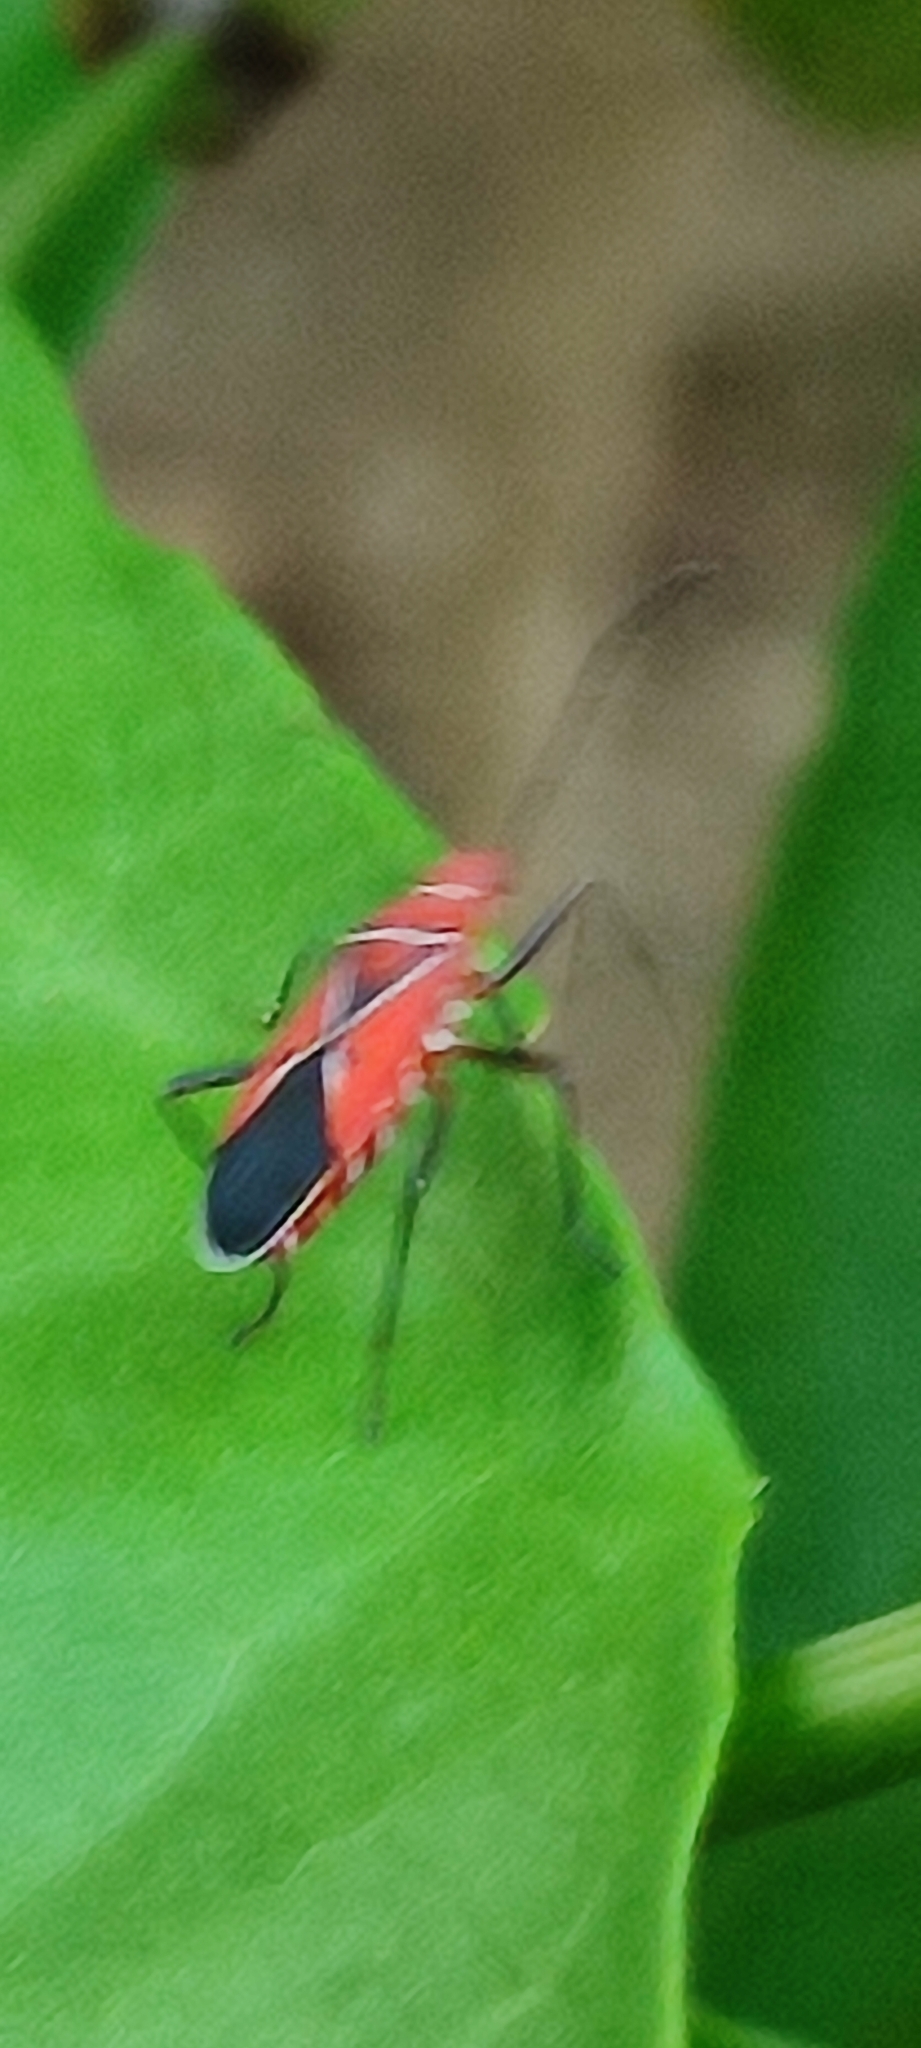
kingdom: Animalia
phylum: Arthropoda
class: Insecta
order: Hemiptera
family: Pyrrhocoridae
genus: Dysdercus
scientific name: Dysdercus andreae
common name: St. andrew's cotton stainer
